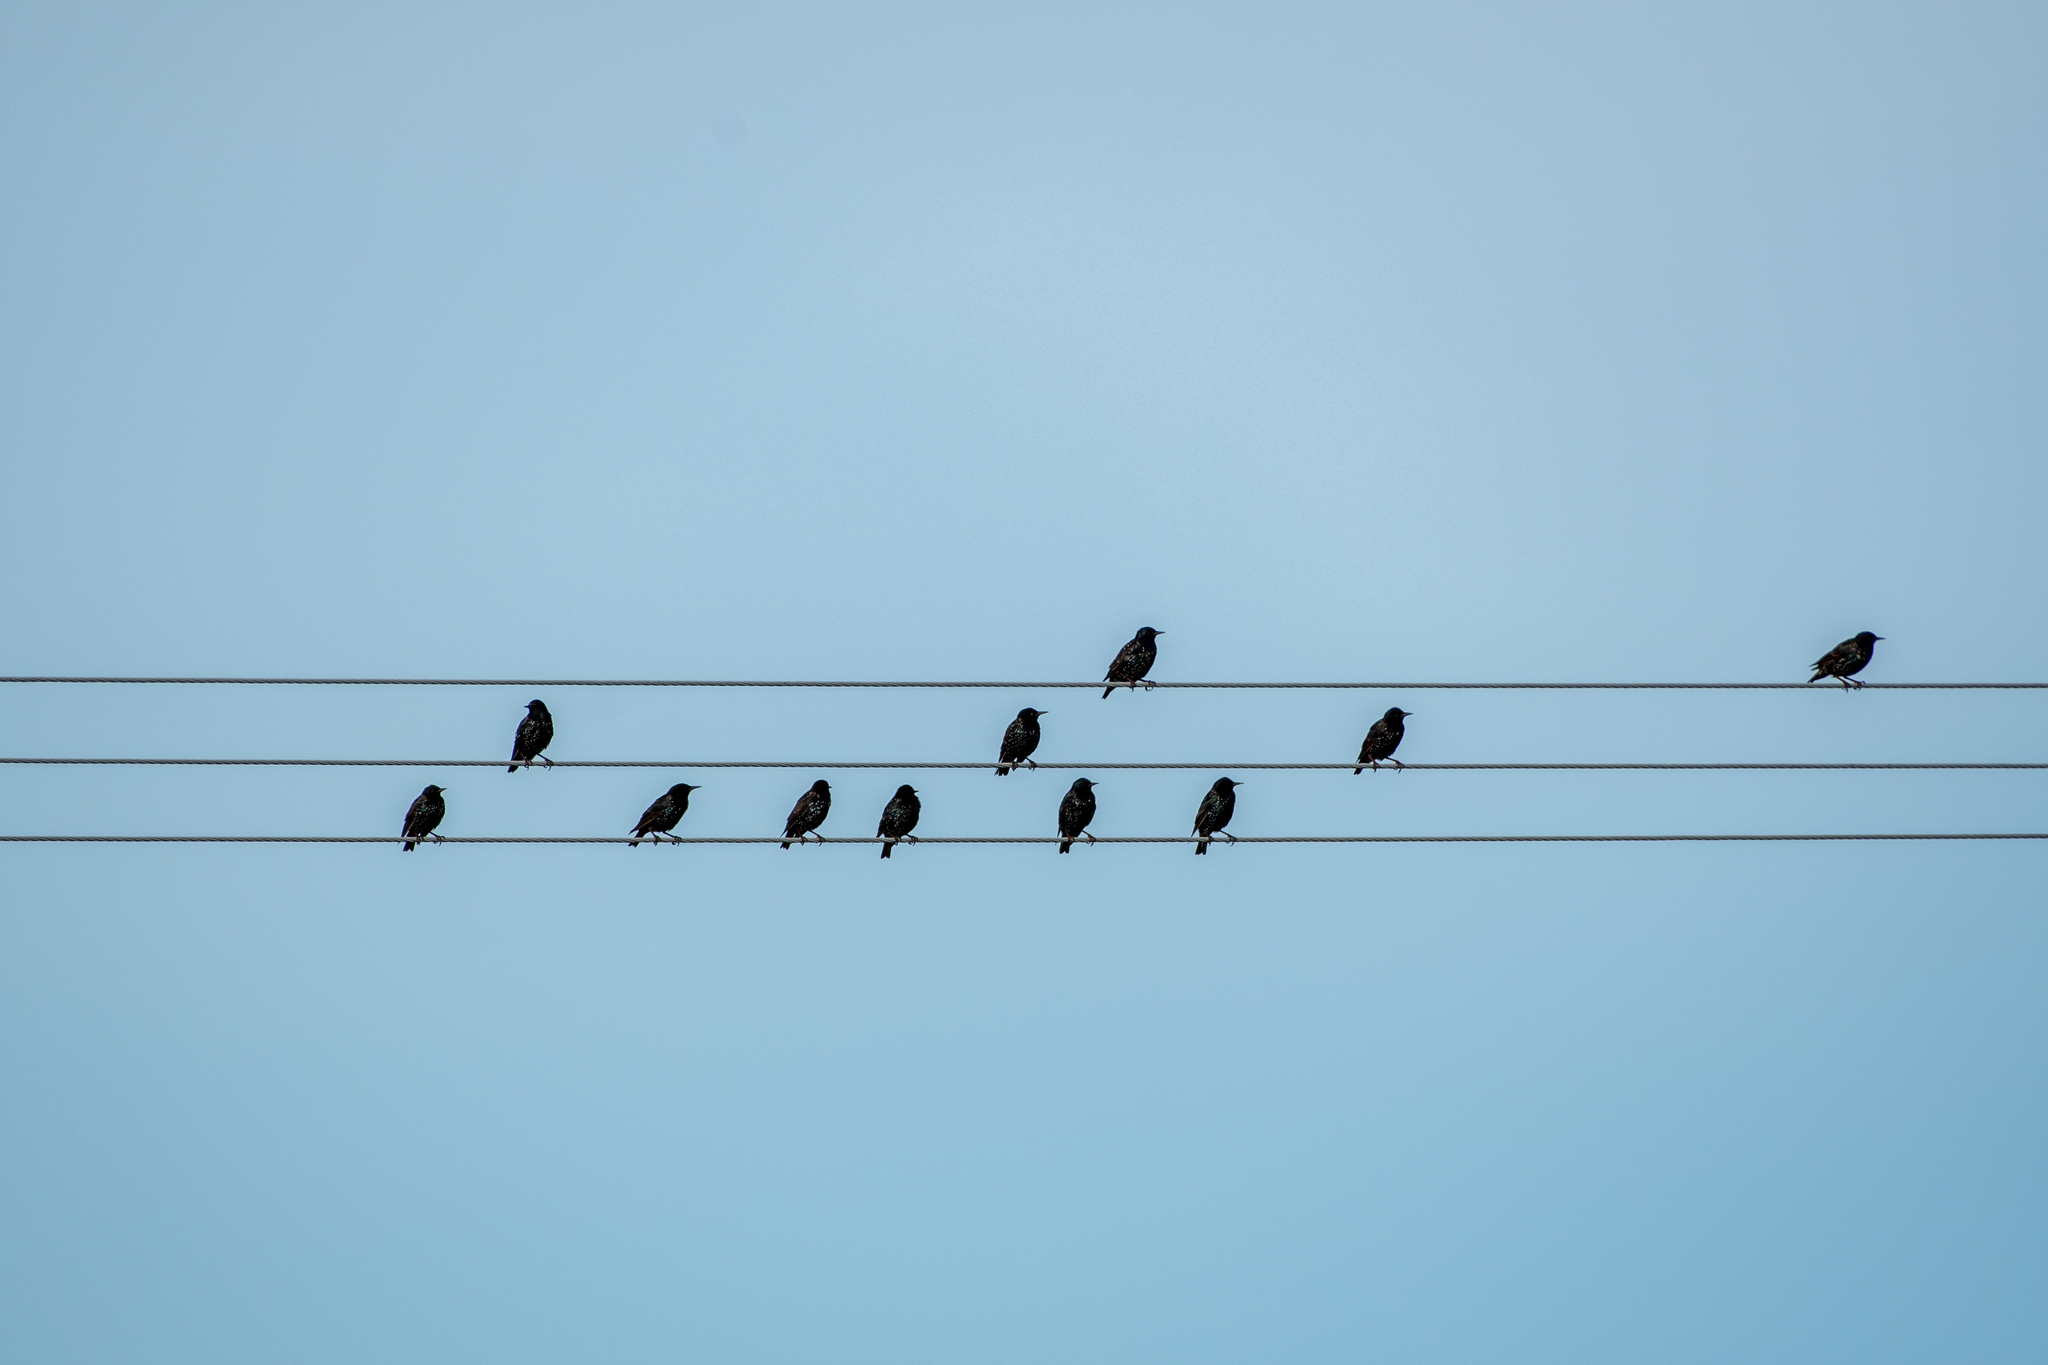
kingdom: Animalia
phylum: Chordata
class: Aves
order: Passeriformes
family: Sturnidae
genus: Sturnus
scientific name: Sturnus vulgaris
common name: Common starling
